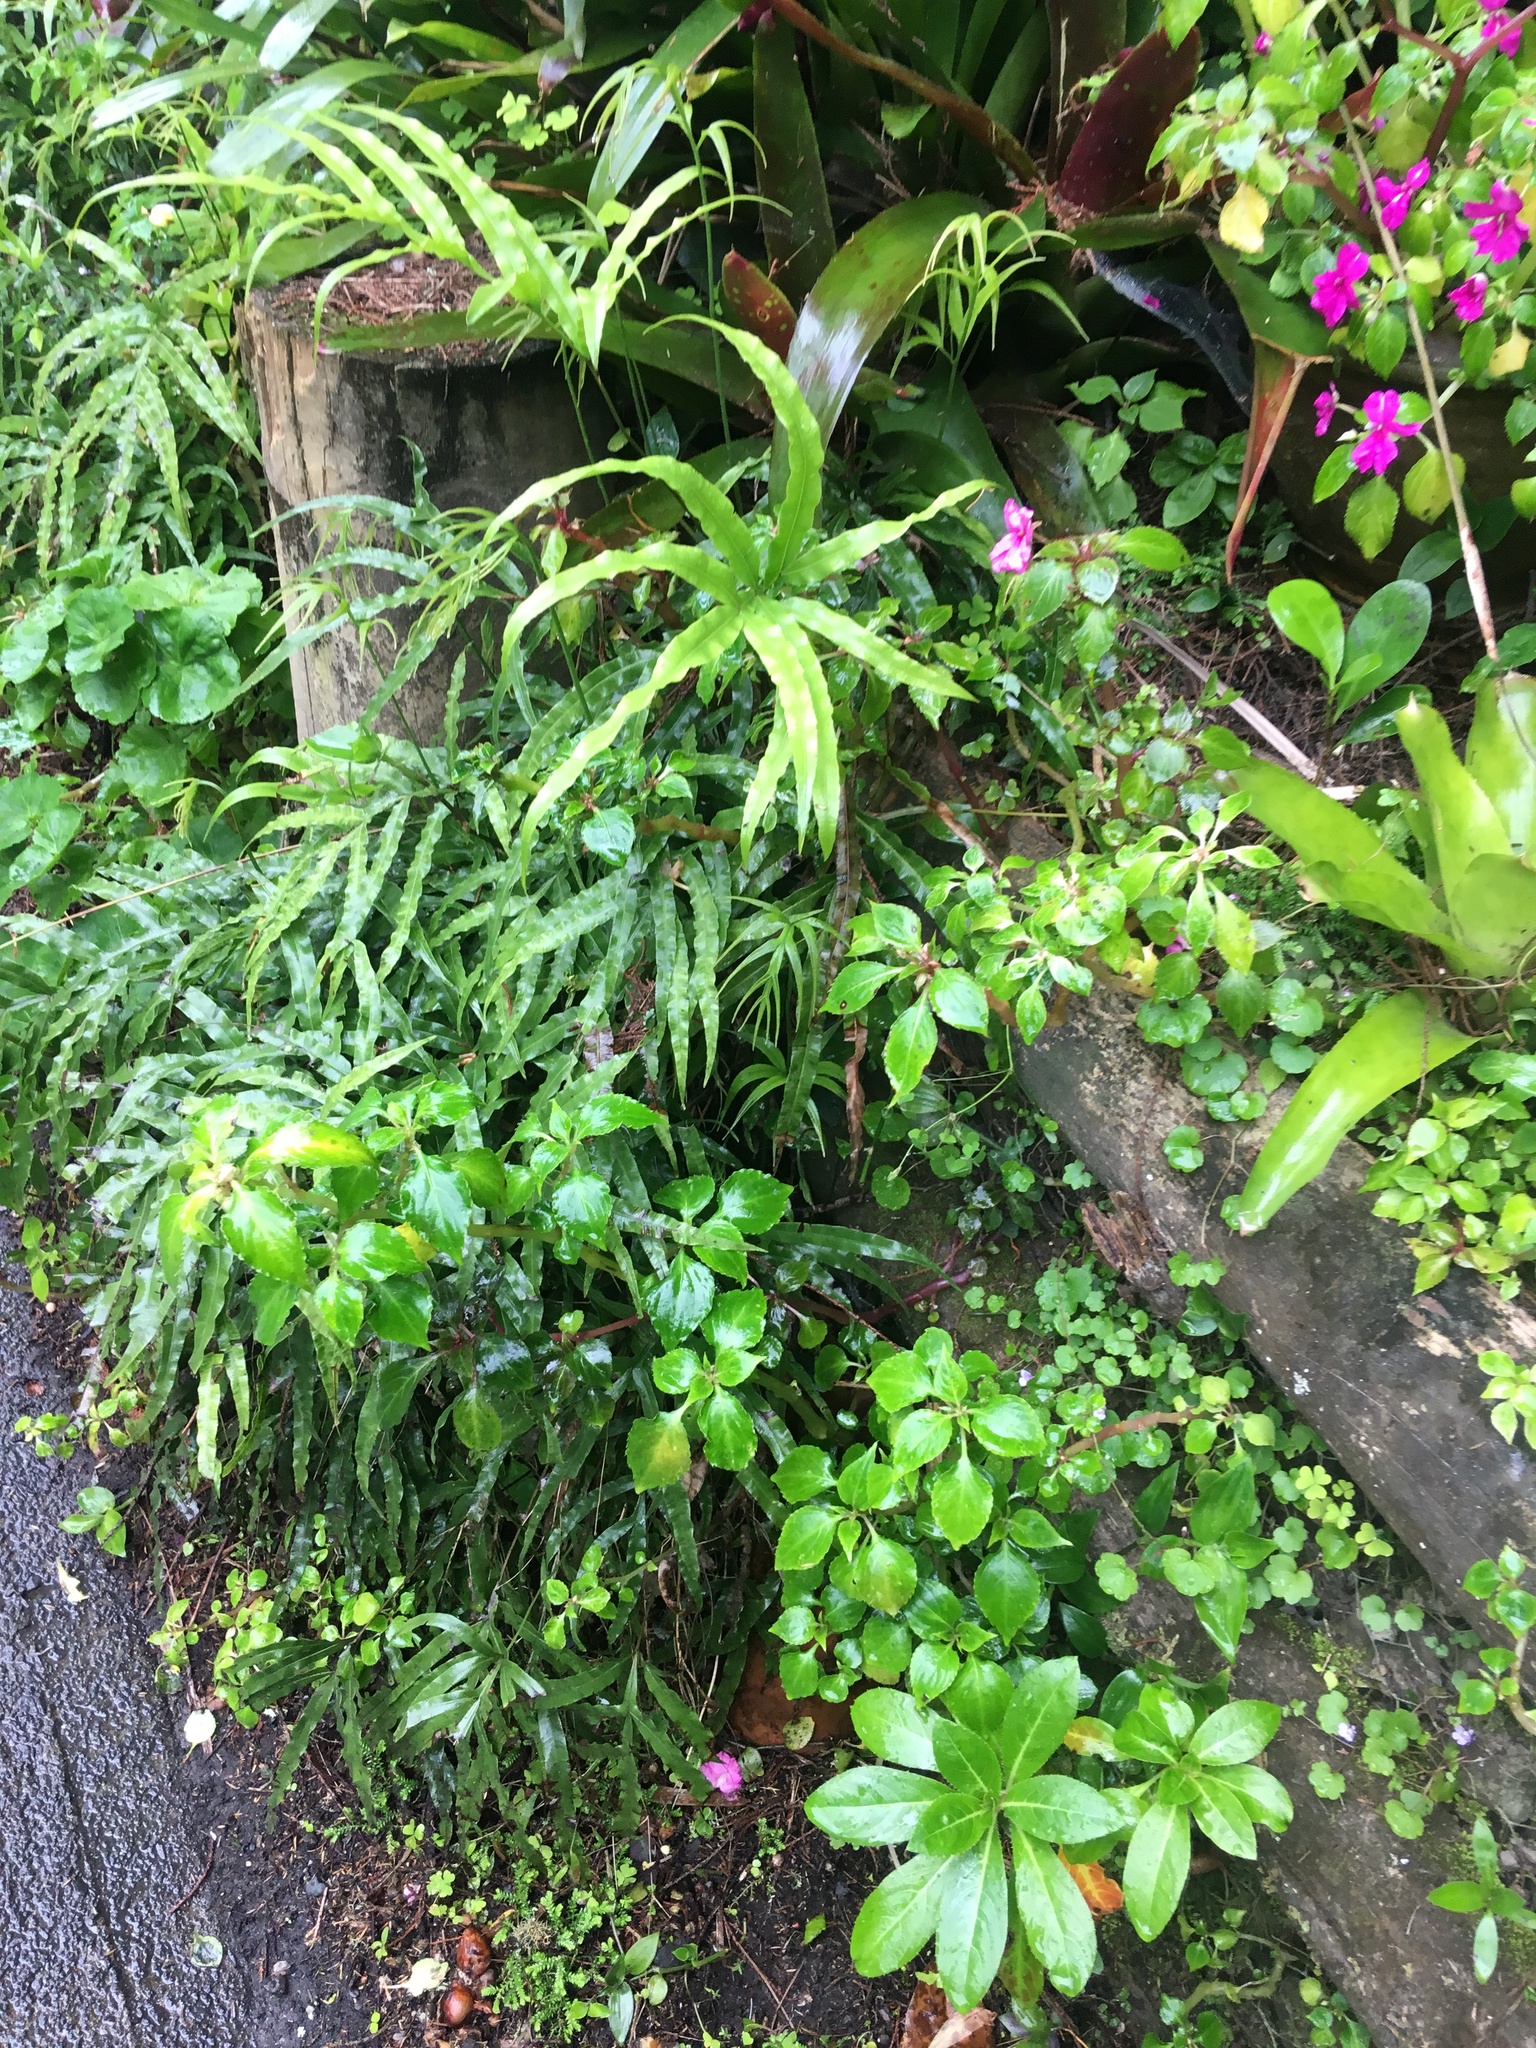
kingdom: Plantae
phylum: Tracheophyta
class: Polypodiopsida
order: Polypodiales
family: Pteridaceae
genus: Pteris
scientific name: Pteris cretica
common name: Ribbon fern
